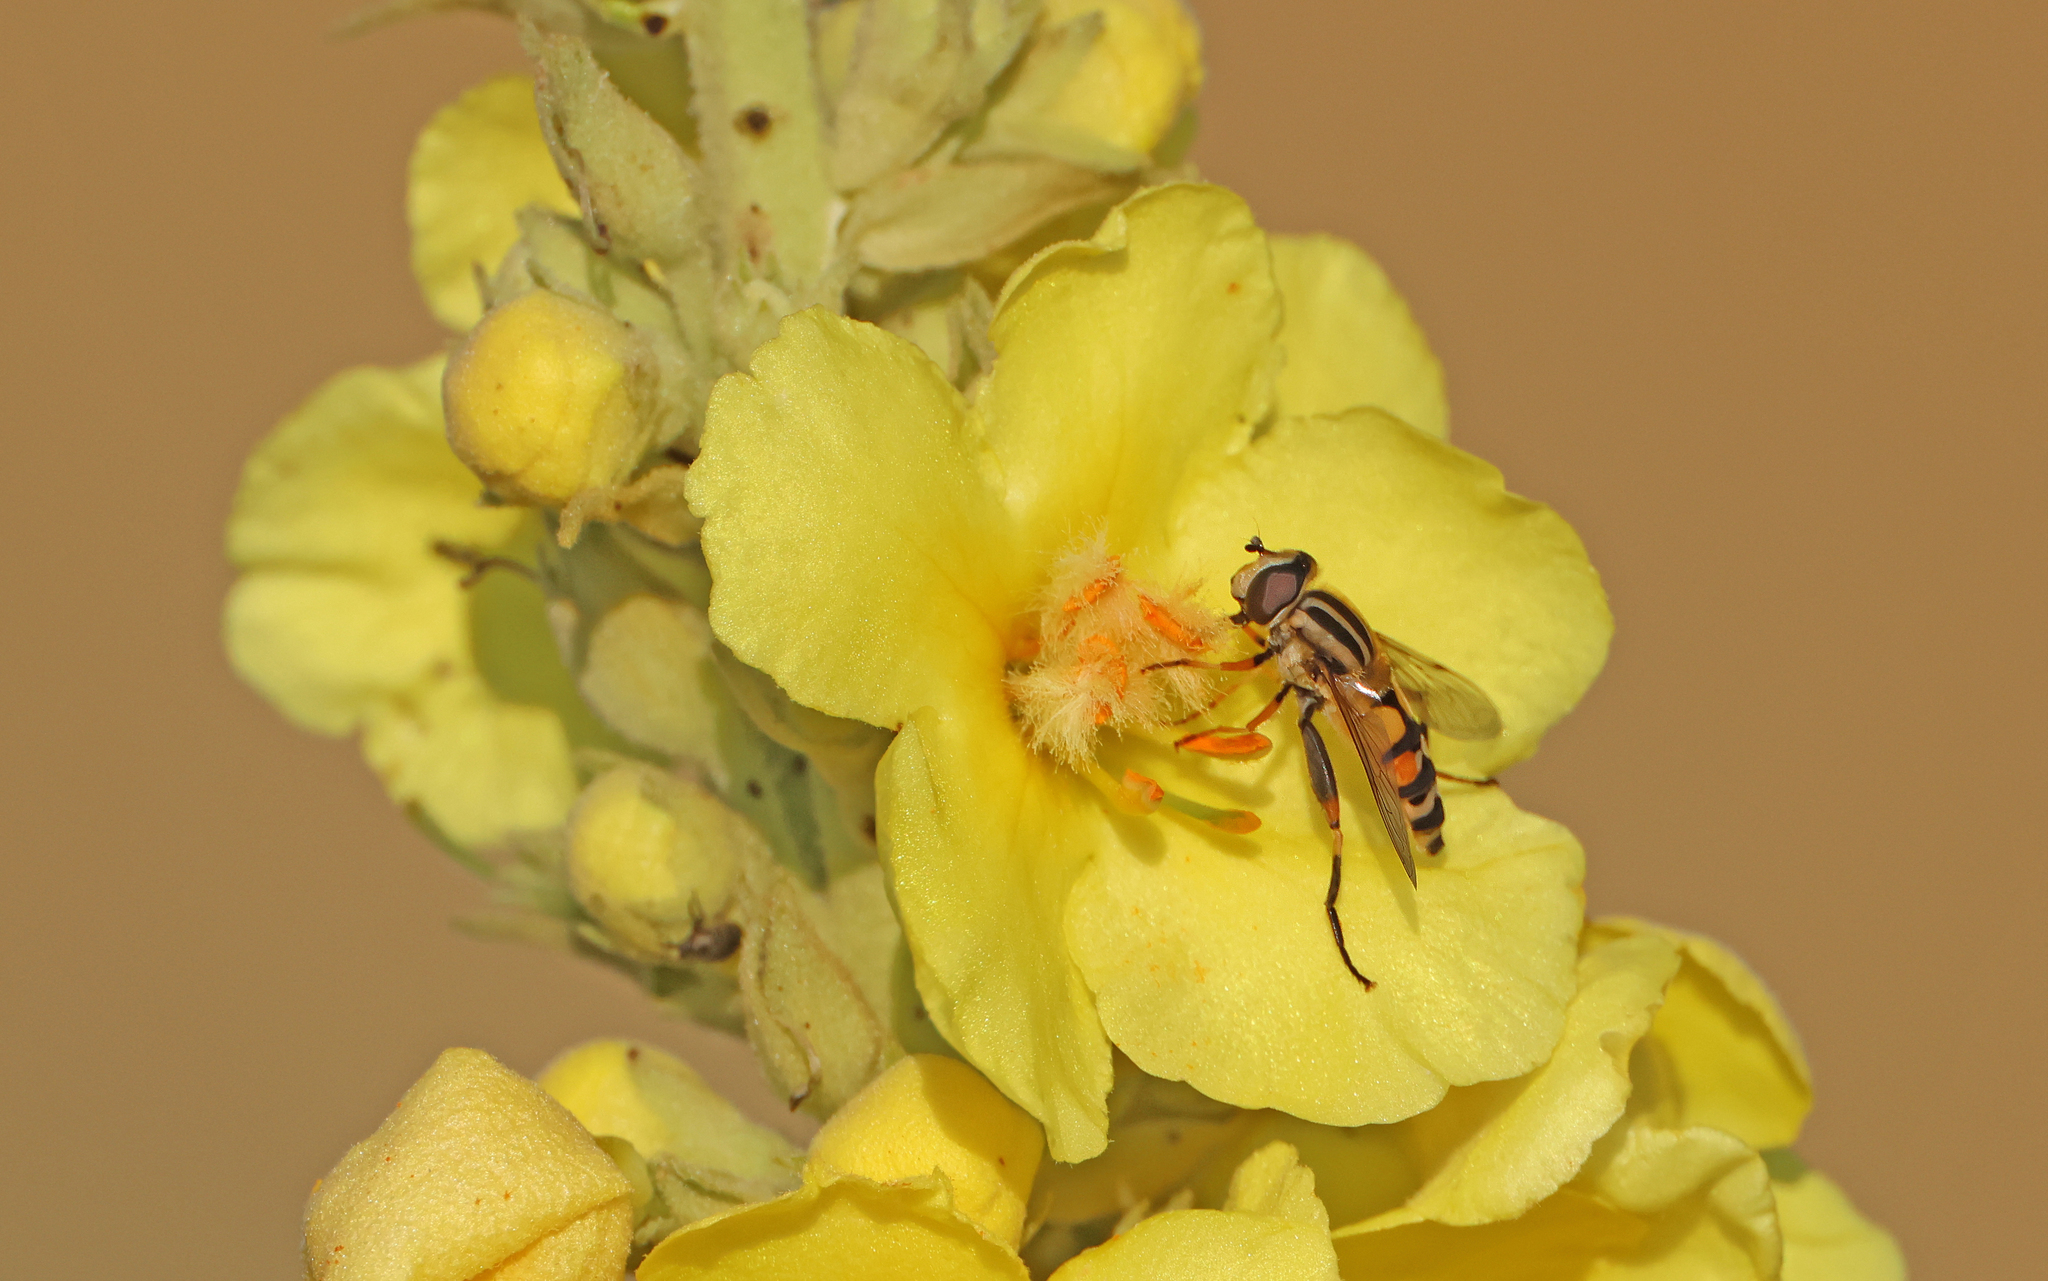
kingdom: Animalia
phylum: Arthropoda
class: Insecta
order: Diptera
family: Syrphidae
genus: Helophilus
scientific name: Helophilus trivittatus
